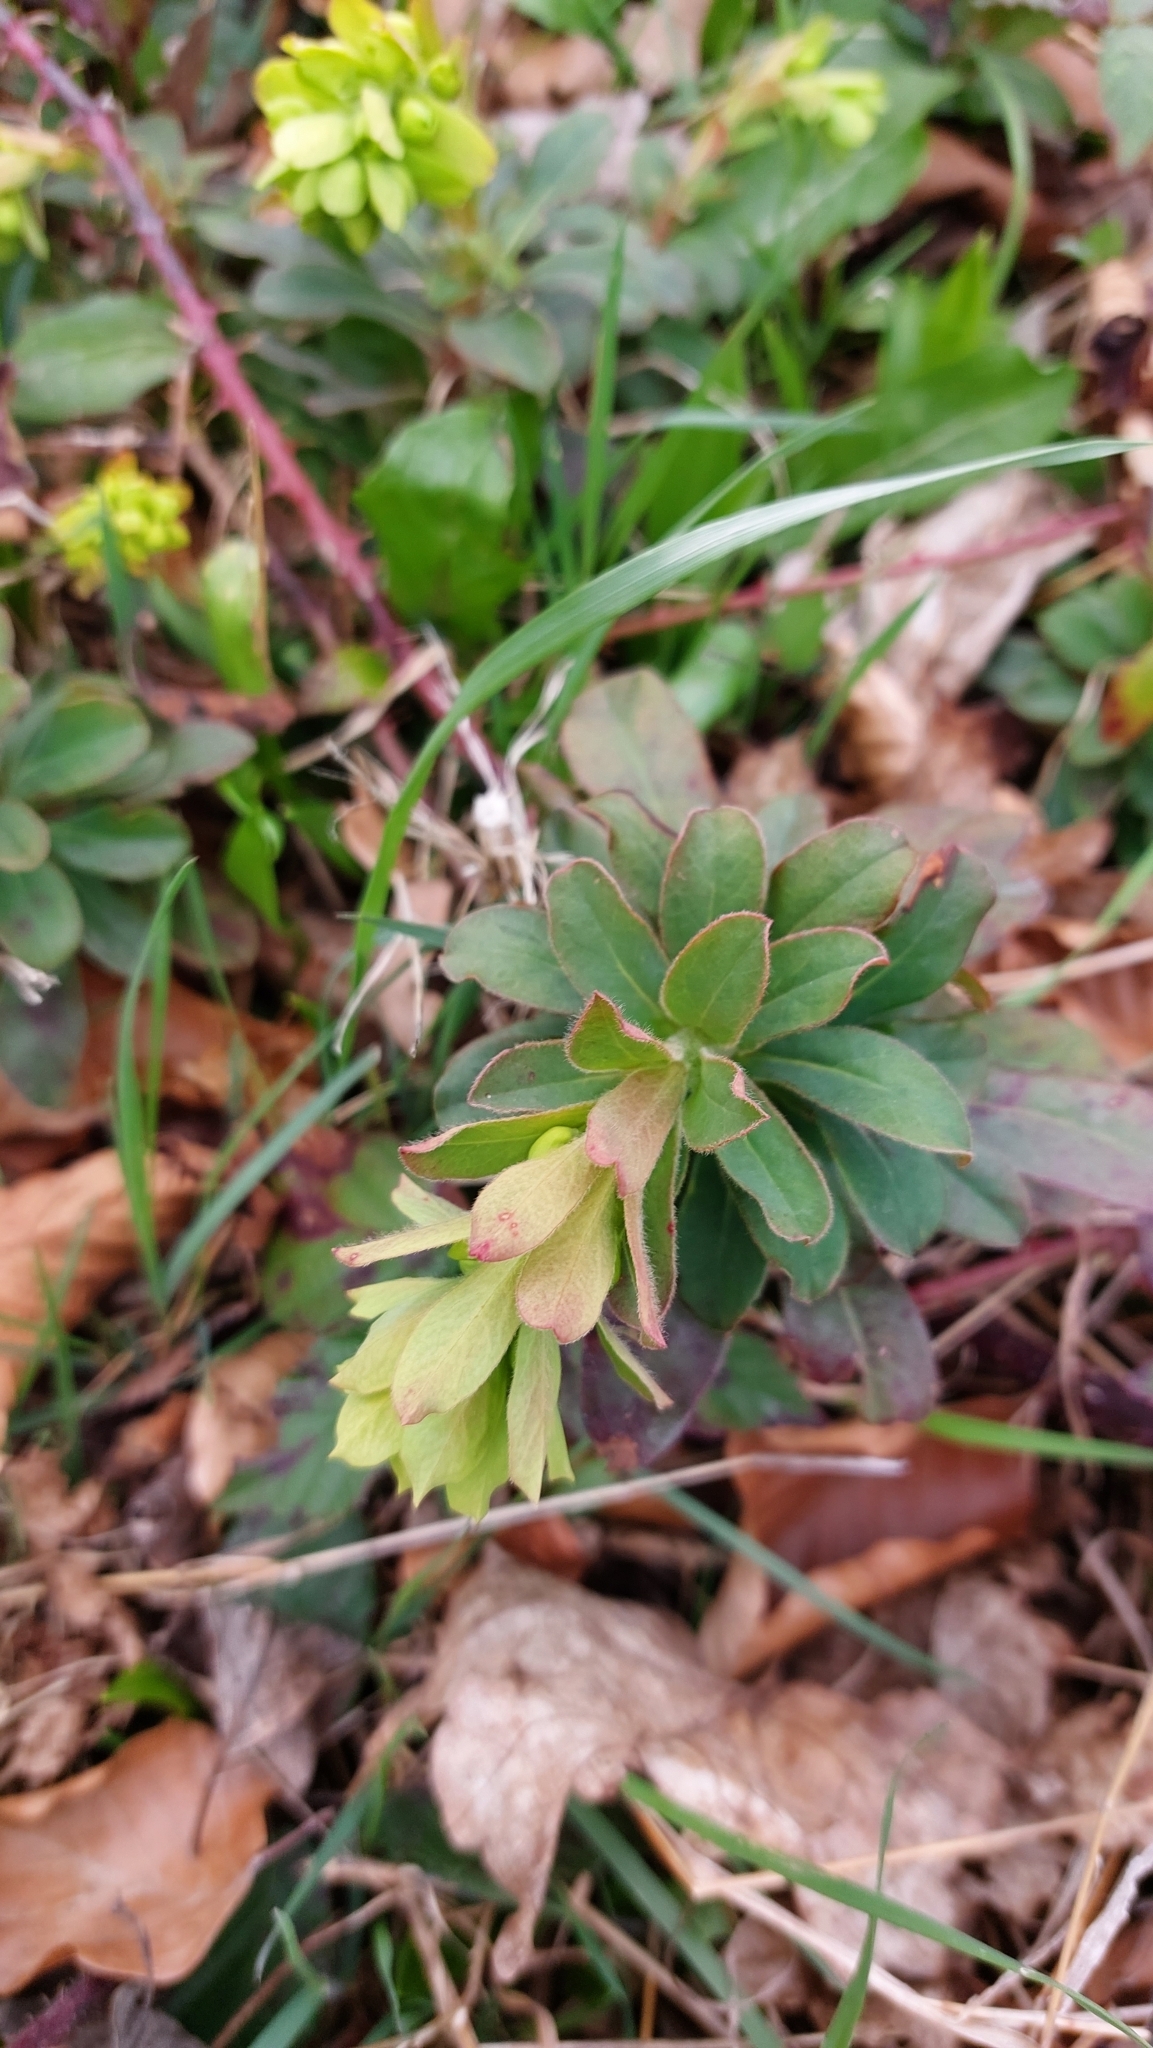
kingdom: Plantae
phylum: Tracheophyta
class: Magnoliopsida
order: Malpighiales
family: Euphorbiaceae
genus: Euphorbia
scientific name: Euphorbia amygdaloides
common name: Wood spurge
